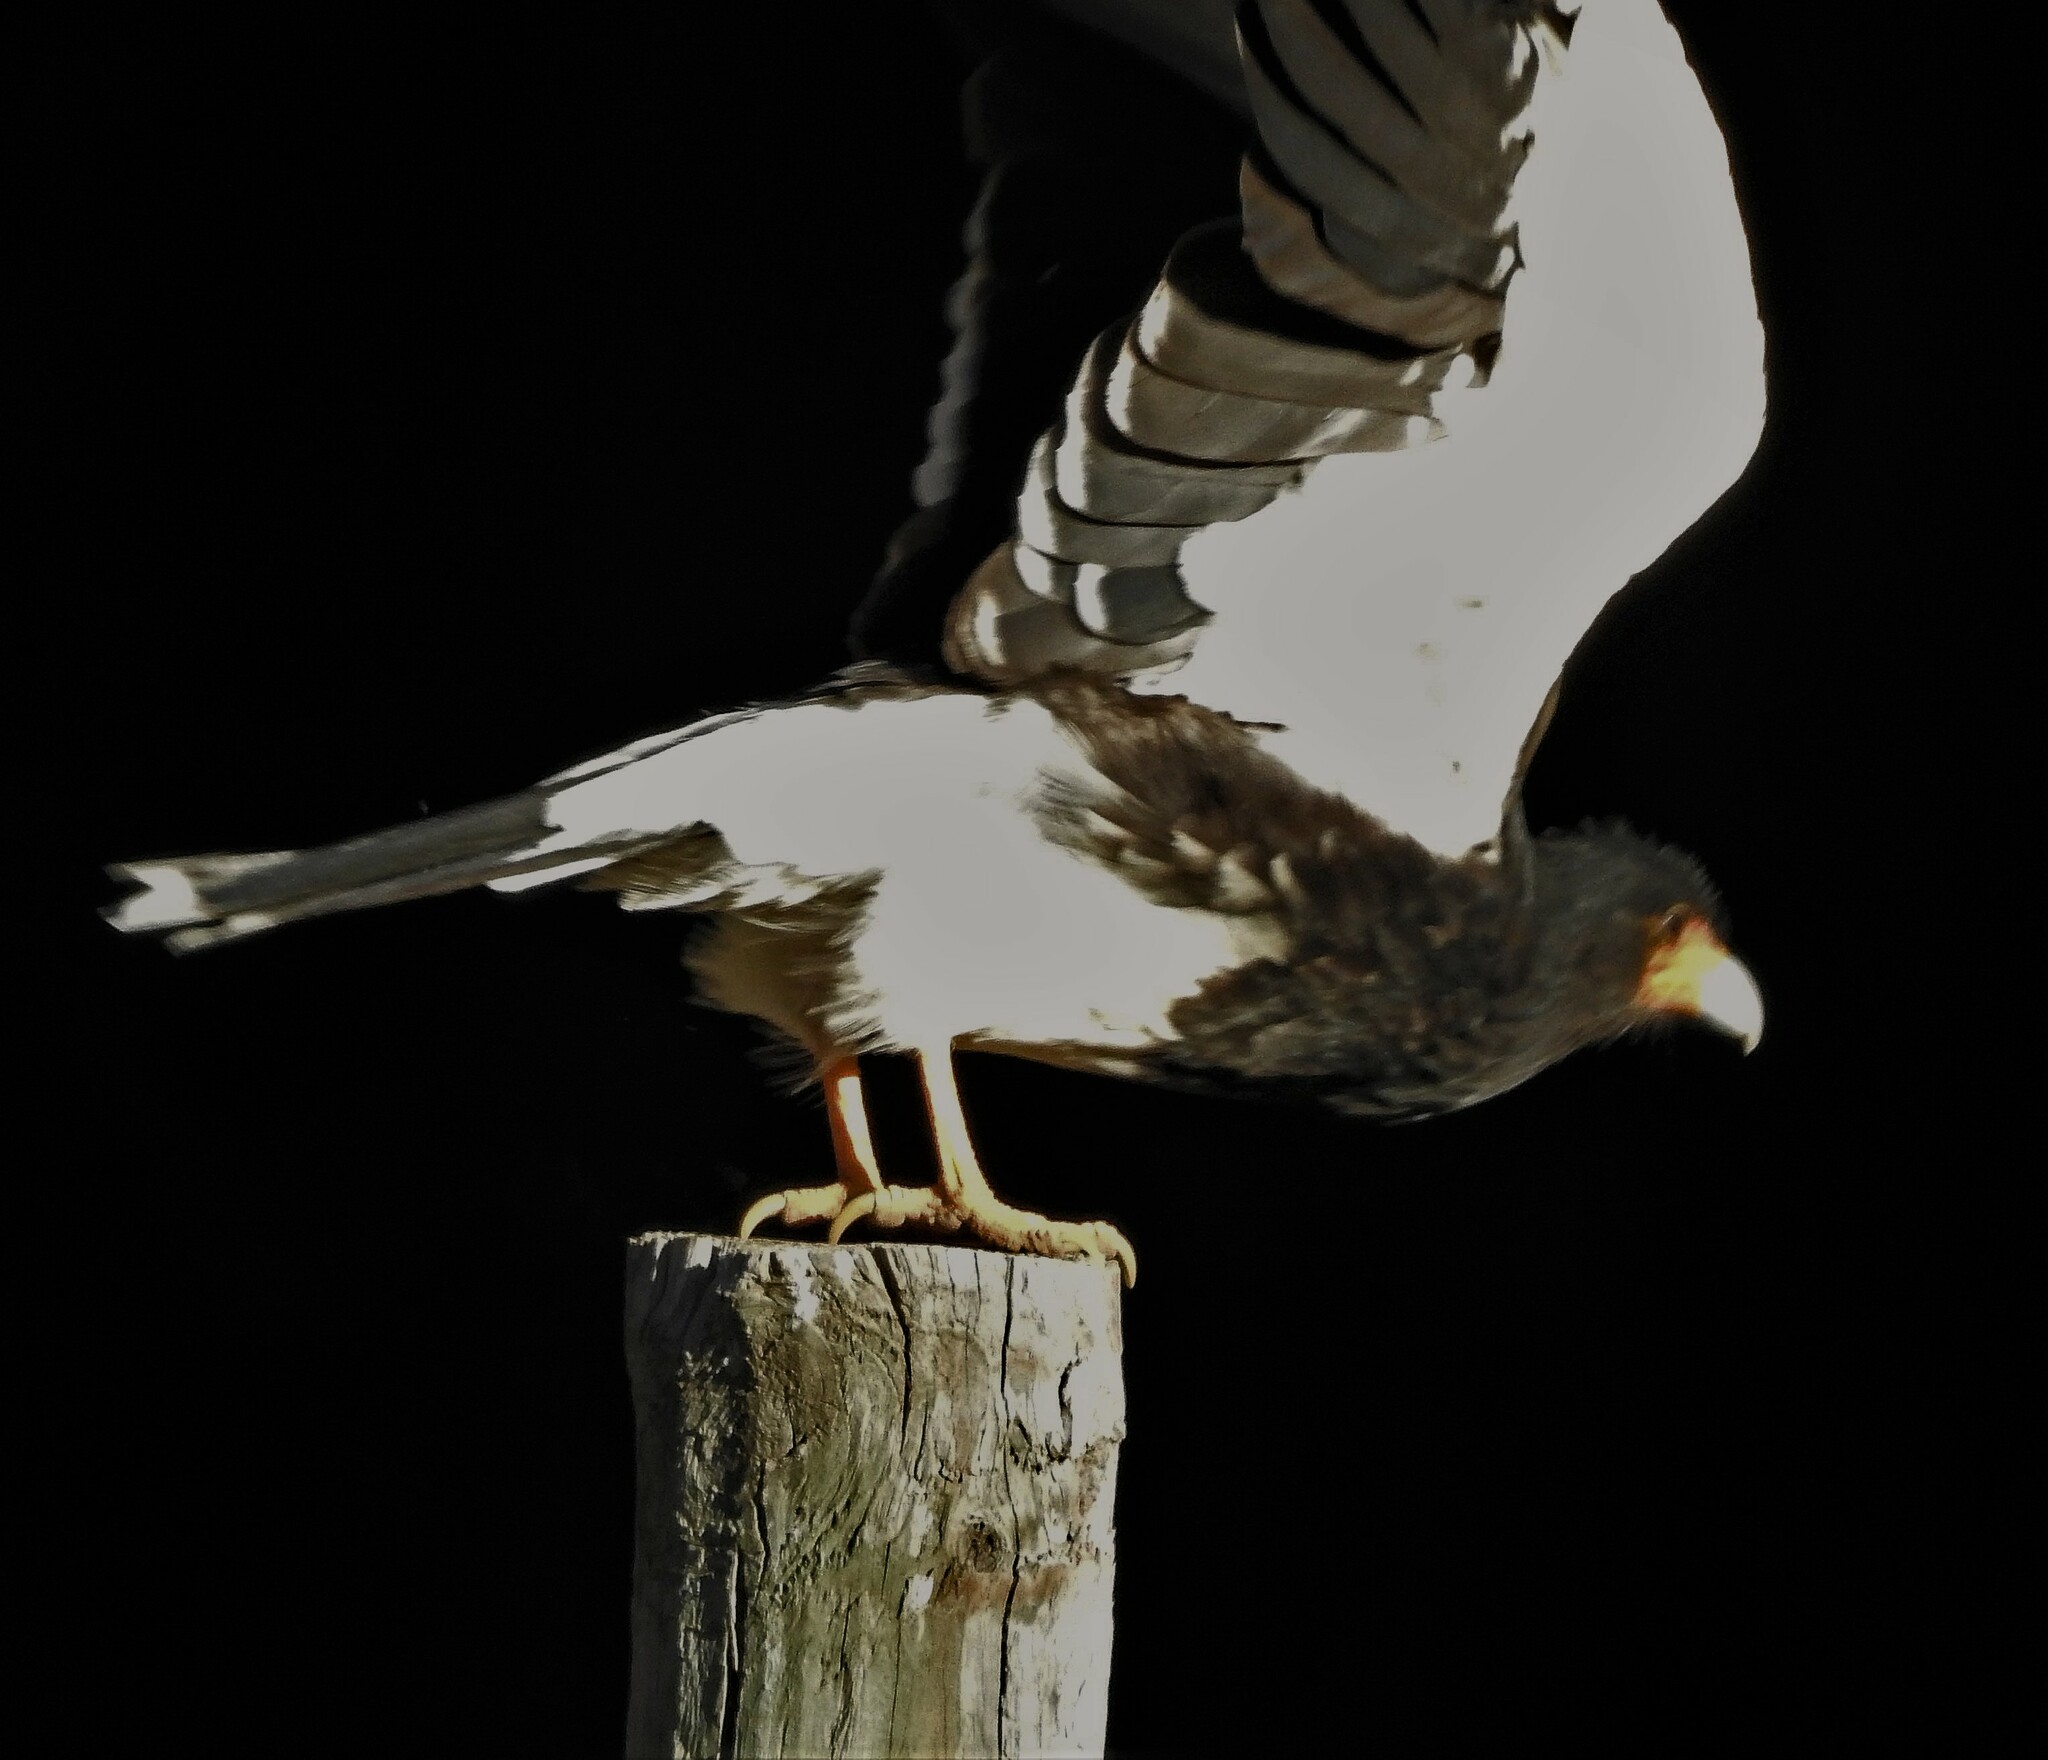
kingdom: Animalia
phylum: Chordata
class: Aves
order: Falconiformes
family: Falconidae
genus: Daptrius
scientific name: Daptrius
